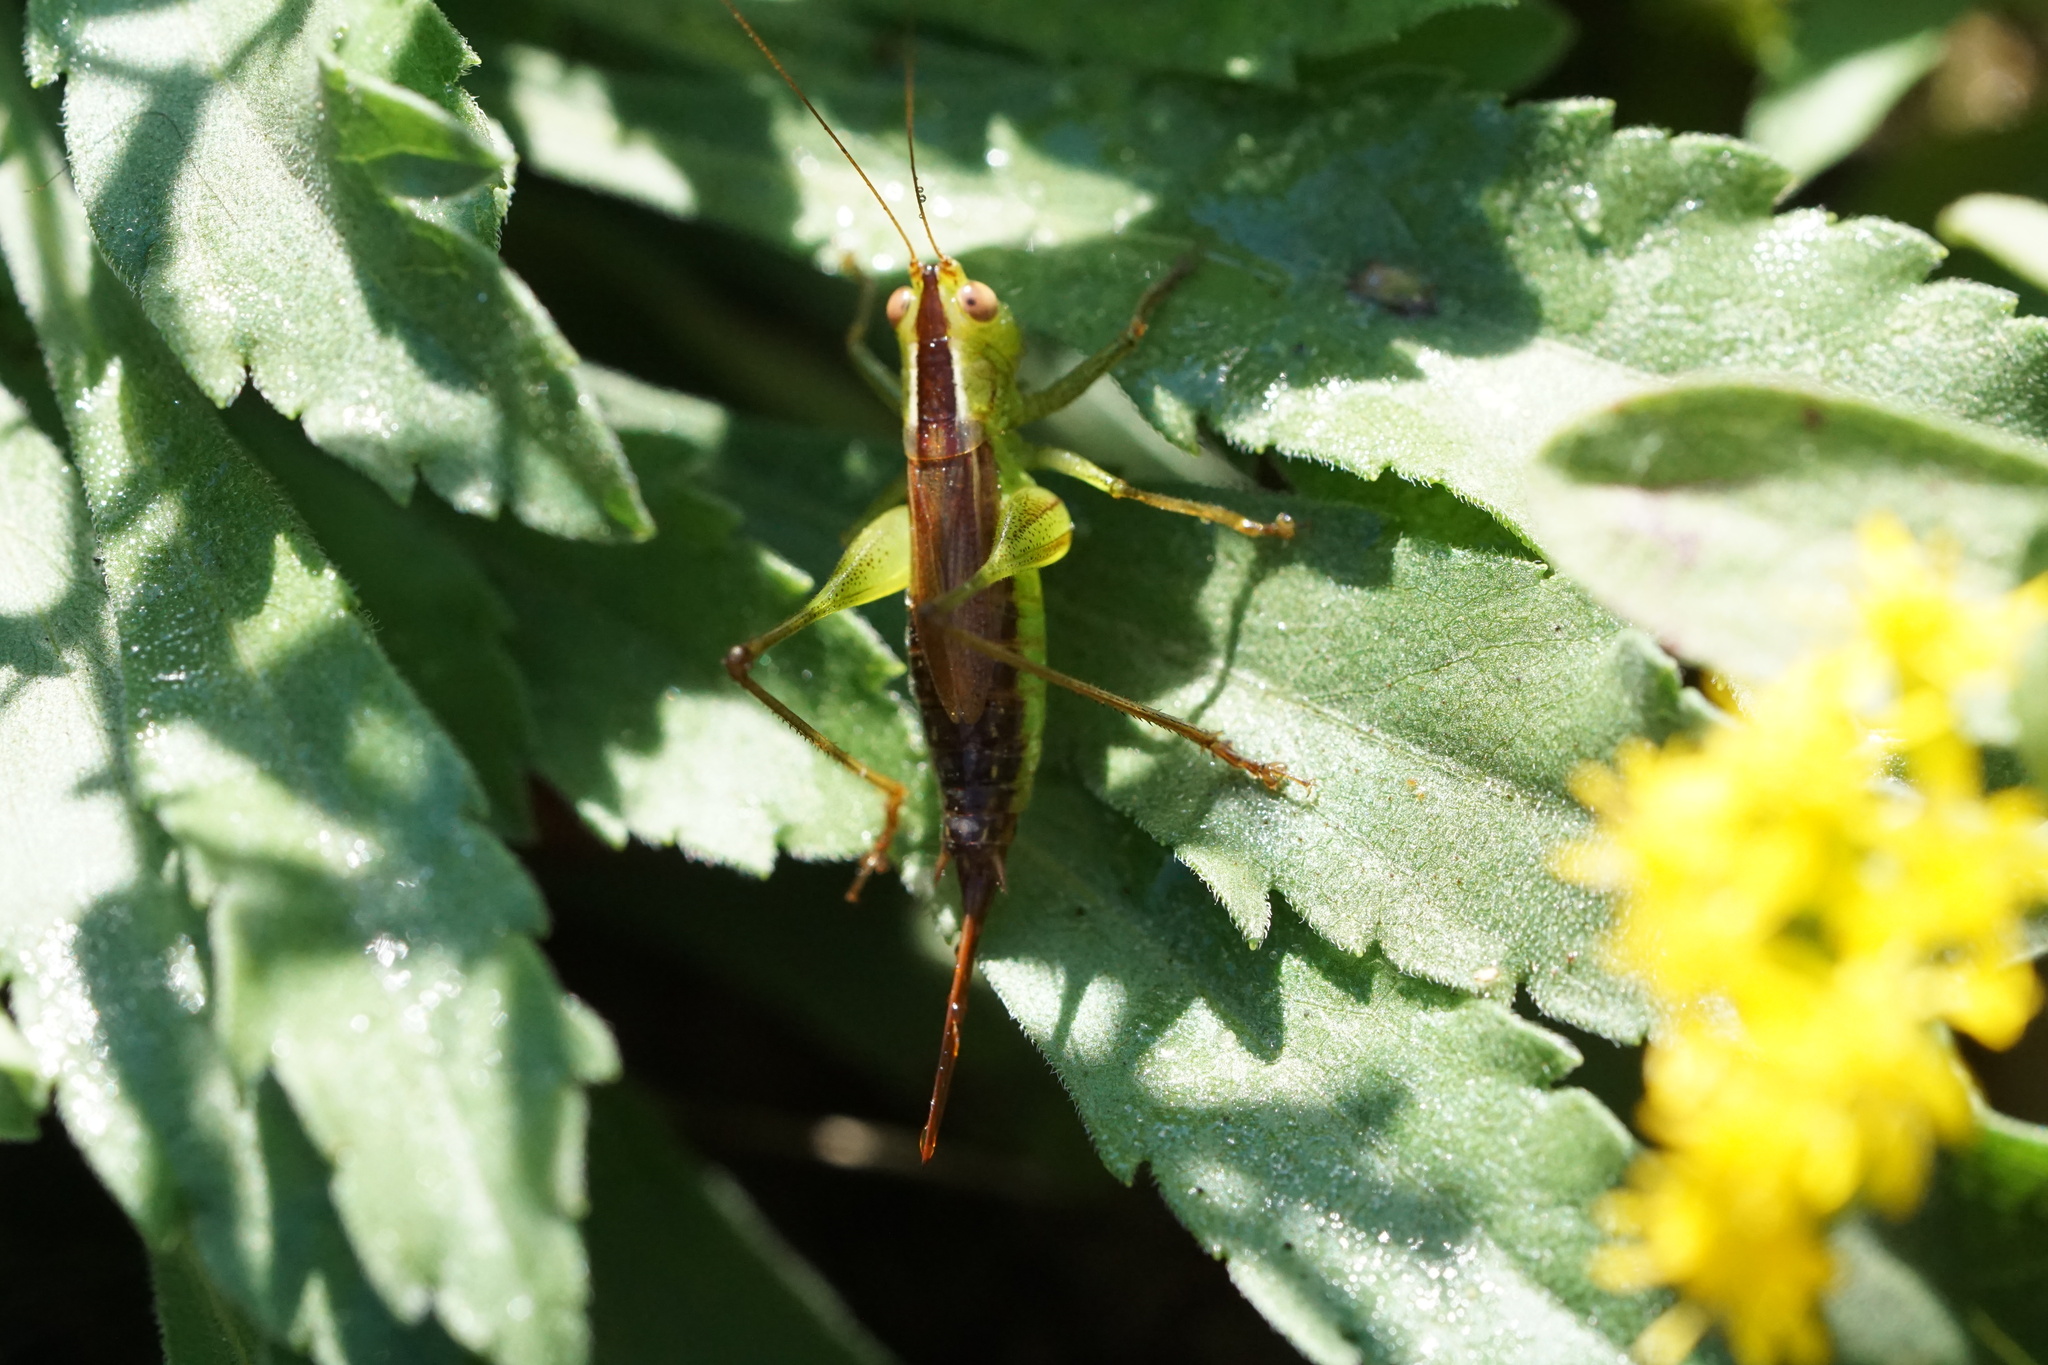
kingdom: Animalia
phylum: Arthropoda
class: Insecta
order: Orthoptera
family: Tettigoniidae
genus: Conocephalus
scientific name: Conocephalus brevipennis
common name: Short-winged meadow katydid
